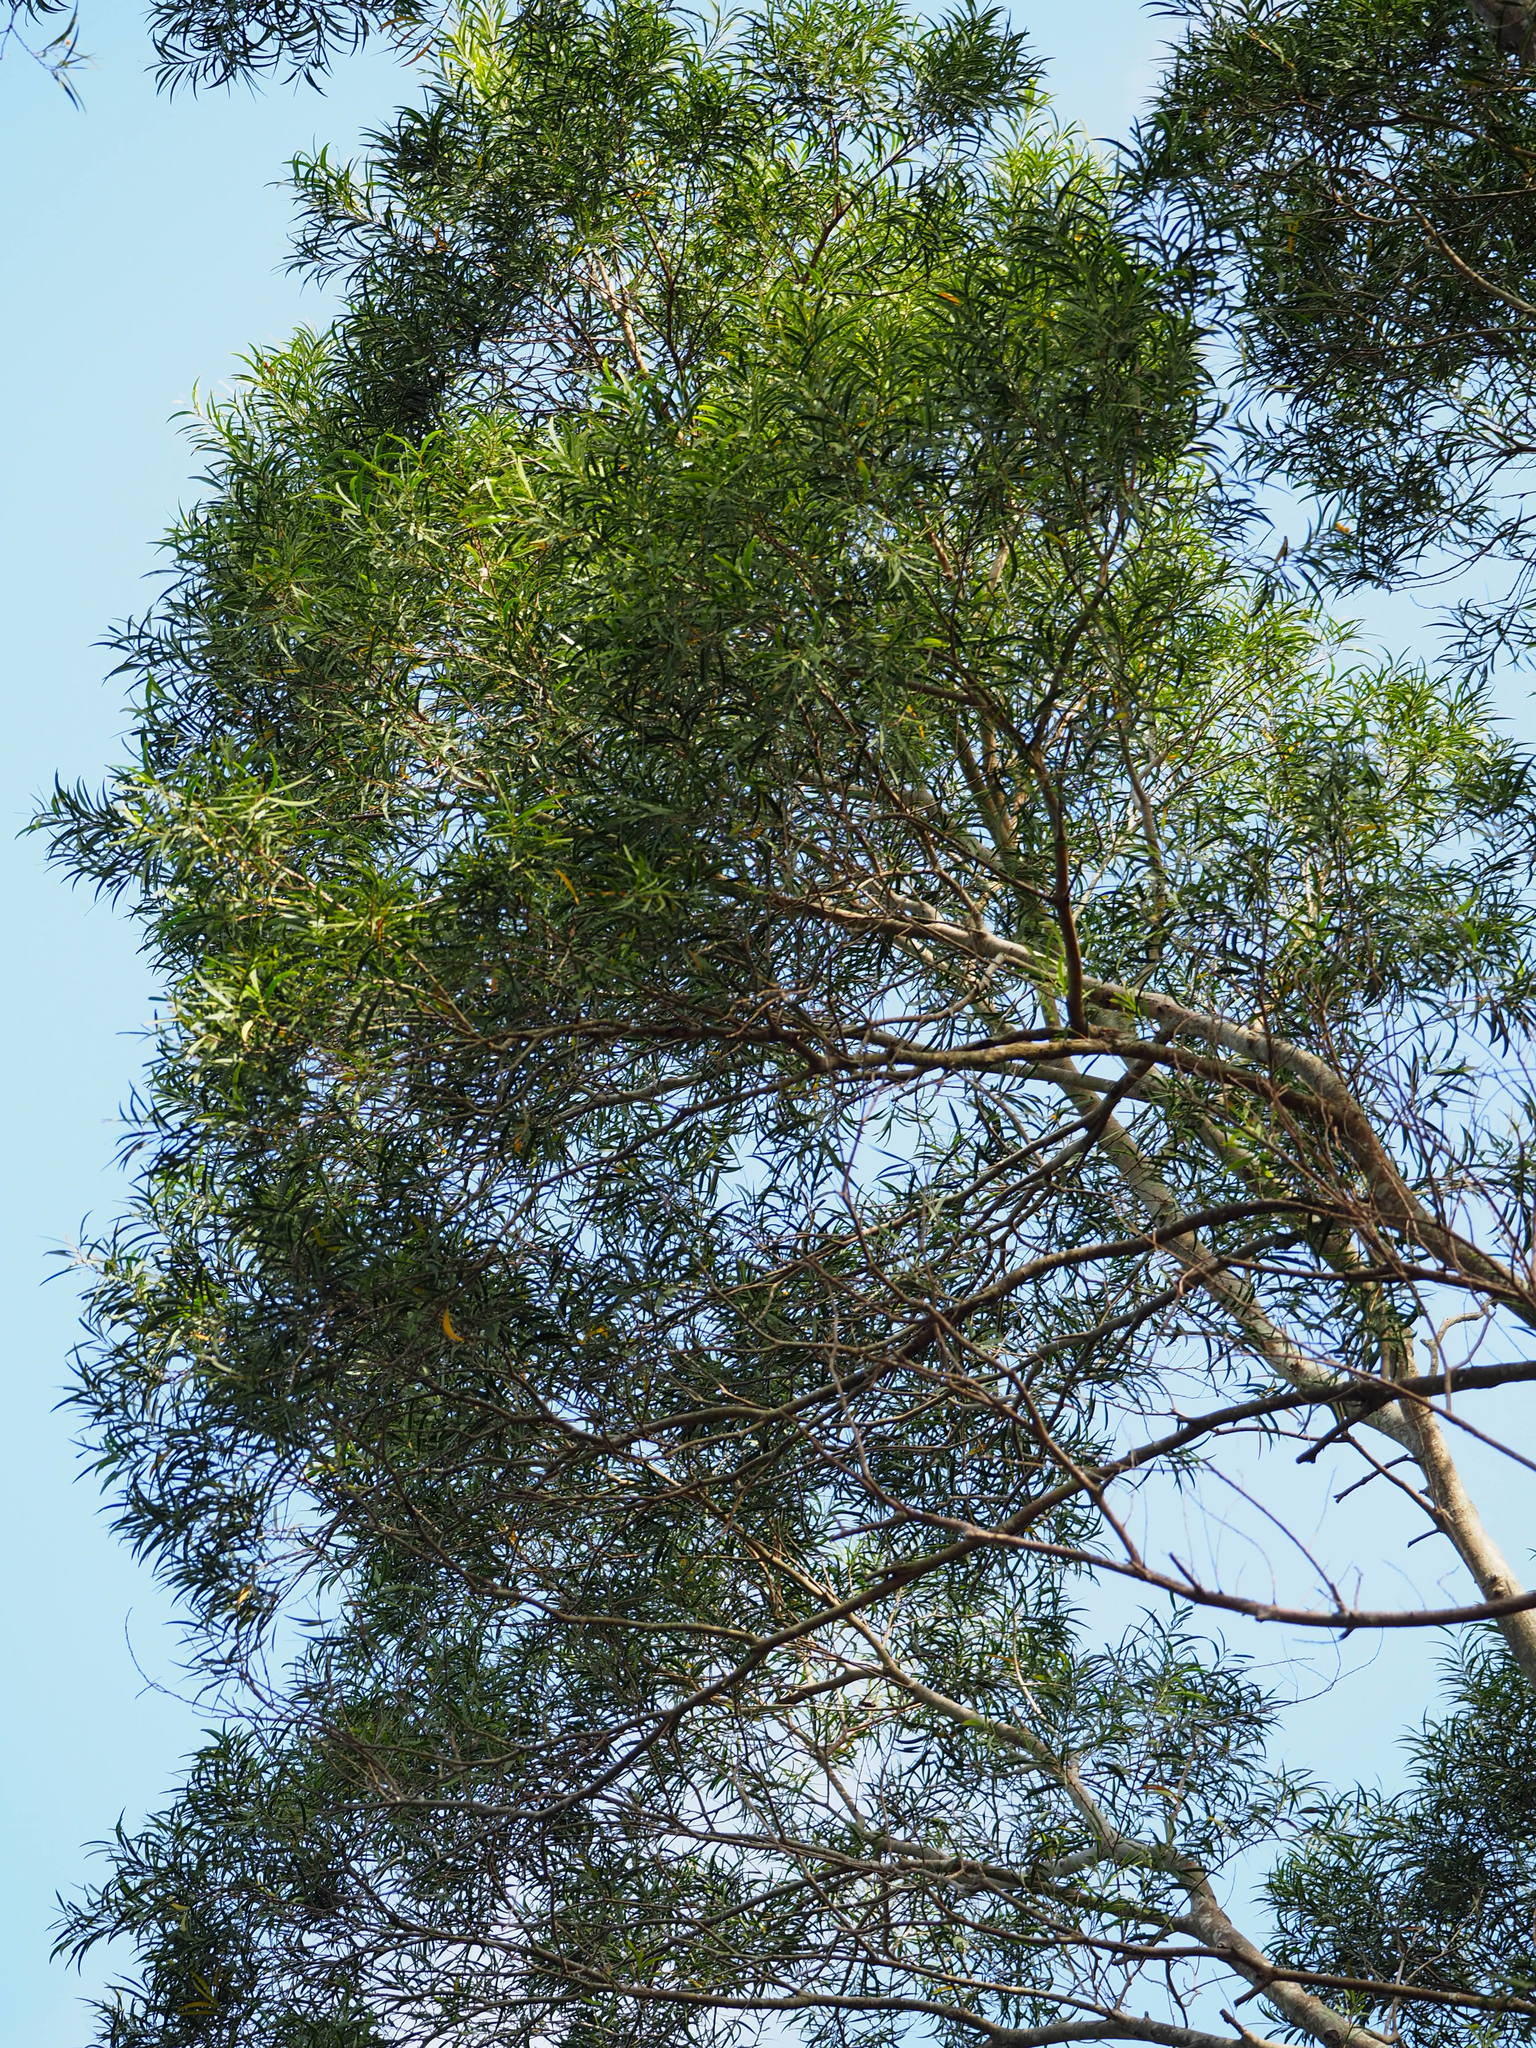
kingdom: Plantae
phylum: Tracheophyta
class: Magnoliopsida
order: Fabales
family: Fabaceae
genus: Acacia
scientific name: Acacia confusa
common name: Formosan koa
